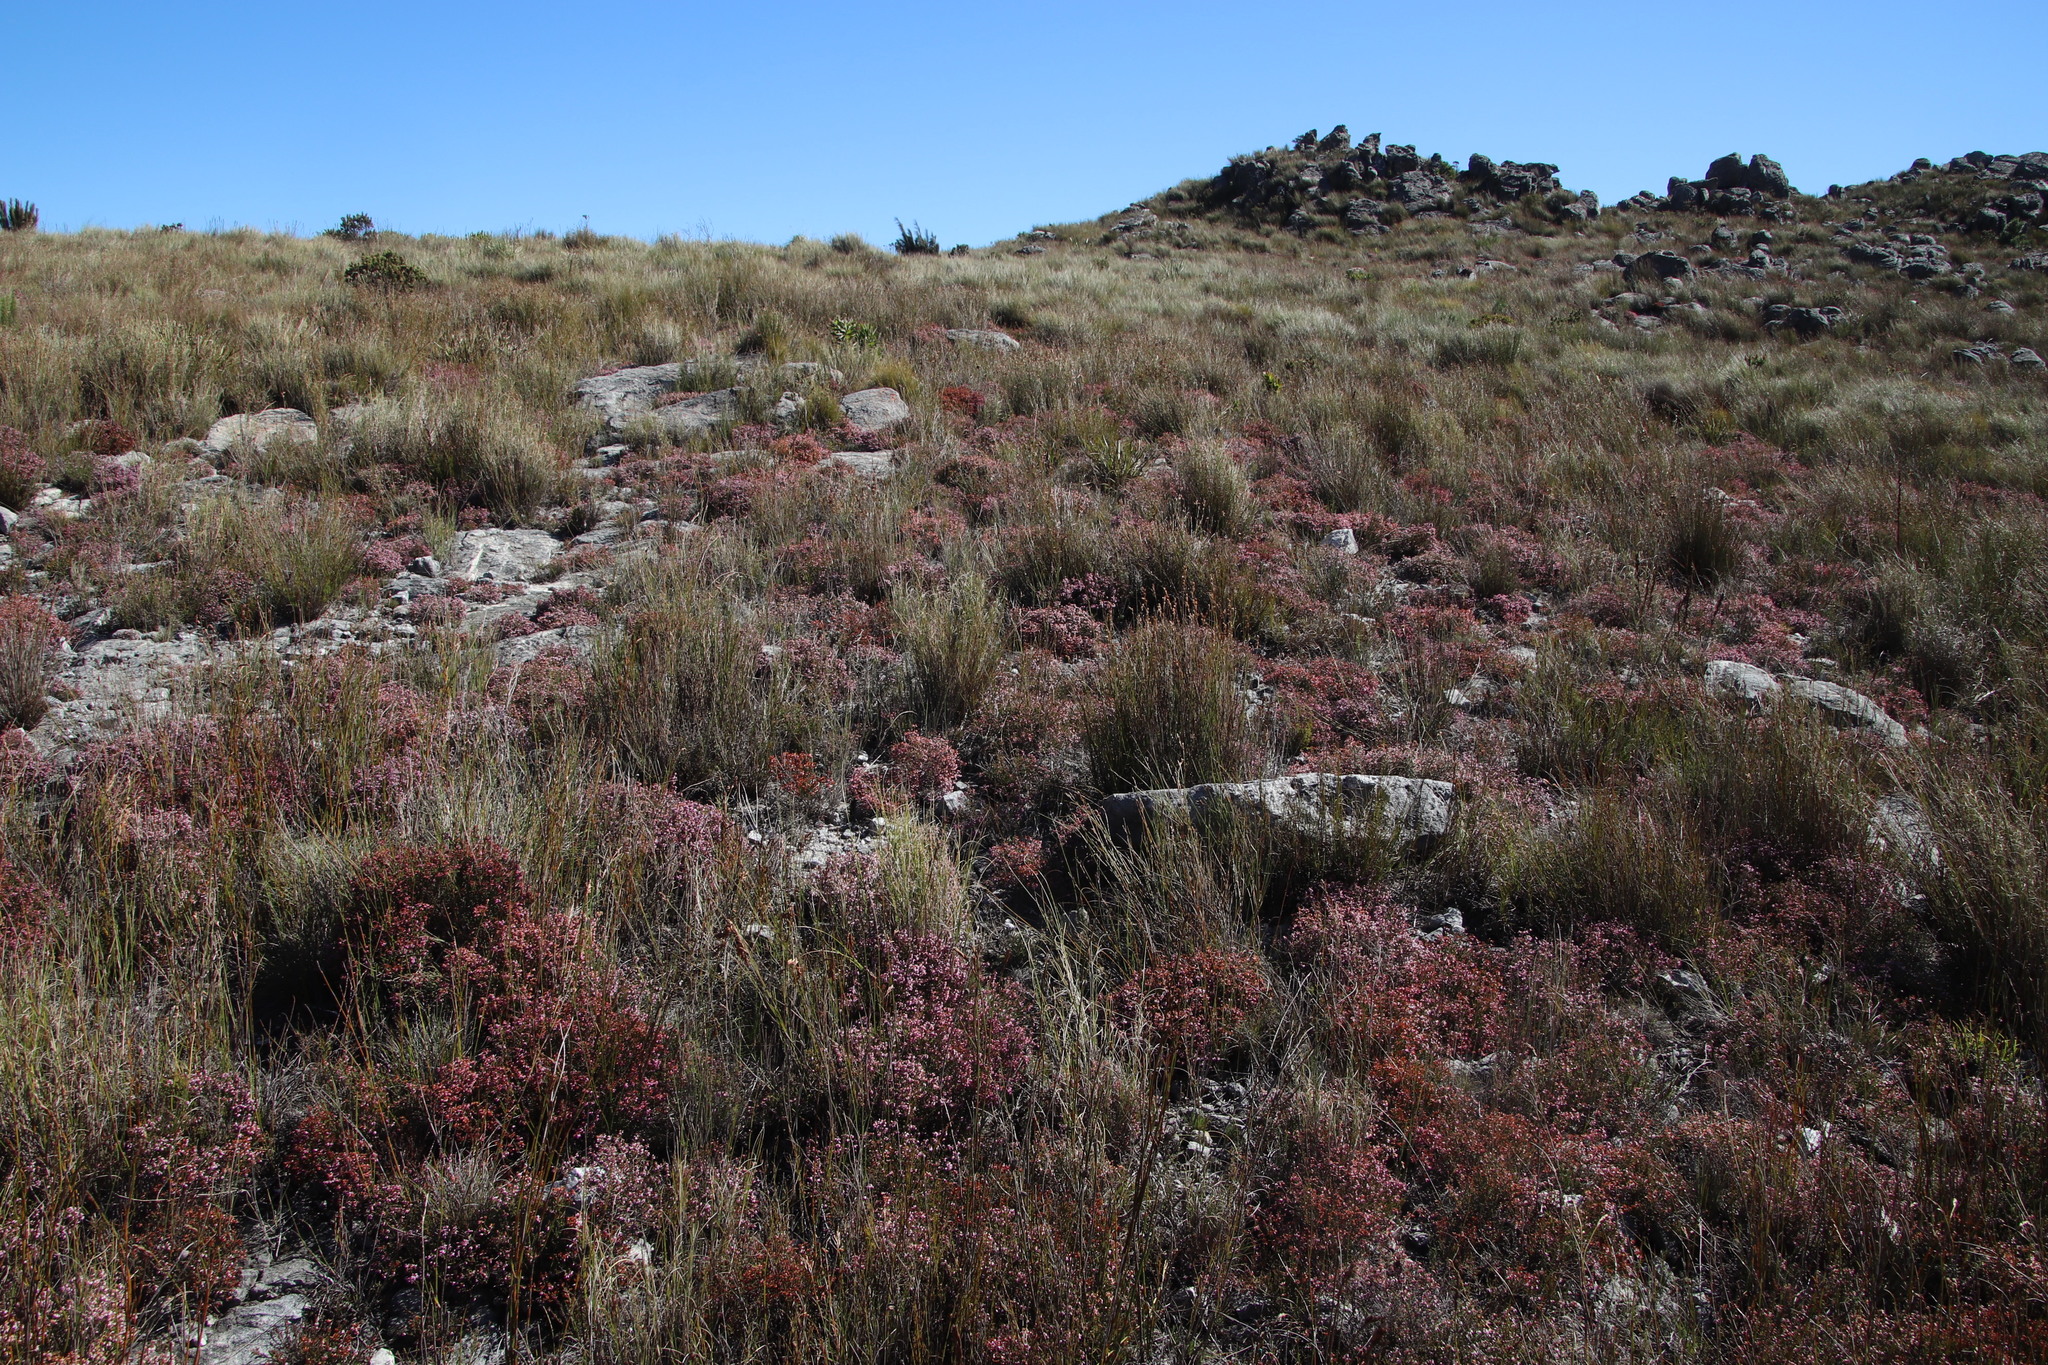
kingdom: Plantae
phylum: Tracheophyta
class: Magnoliopsida
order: Ericales
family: Ericaceae
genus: Erica
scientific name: Erica equisetifolia
